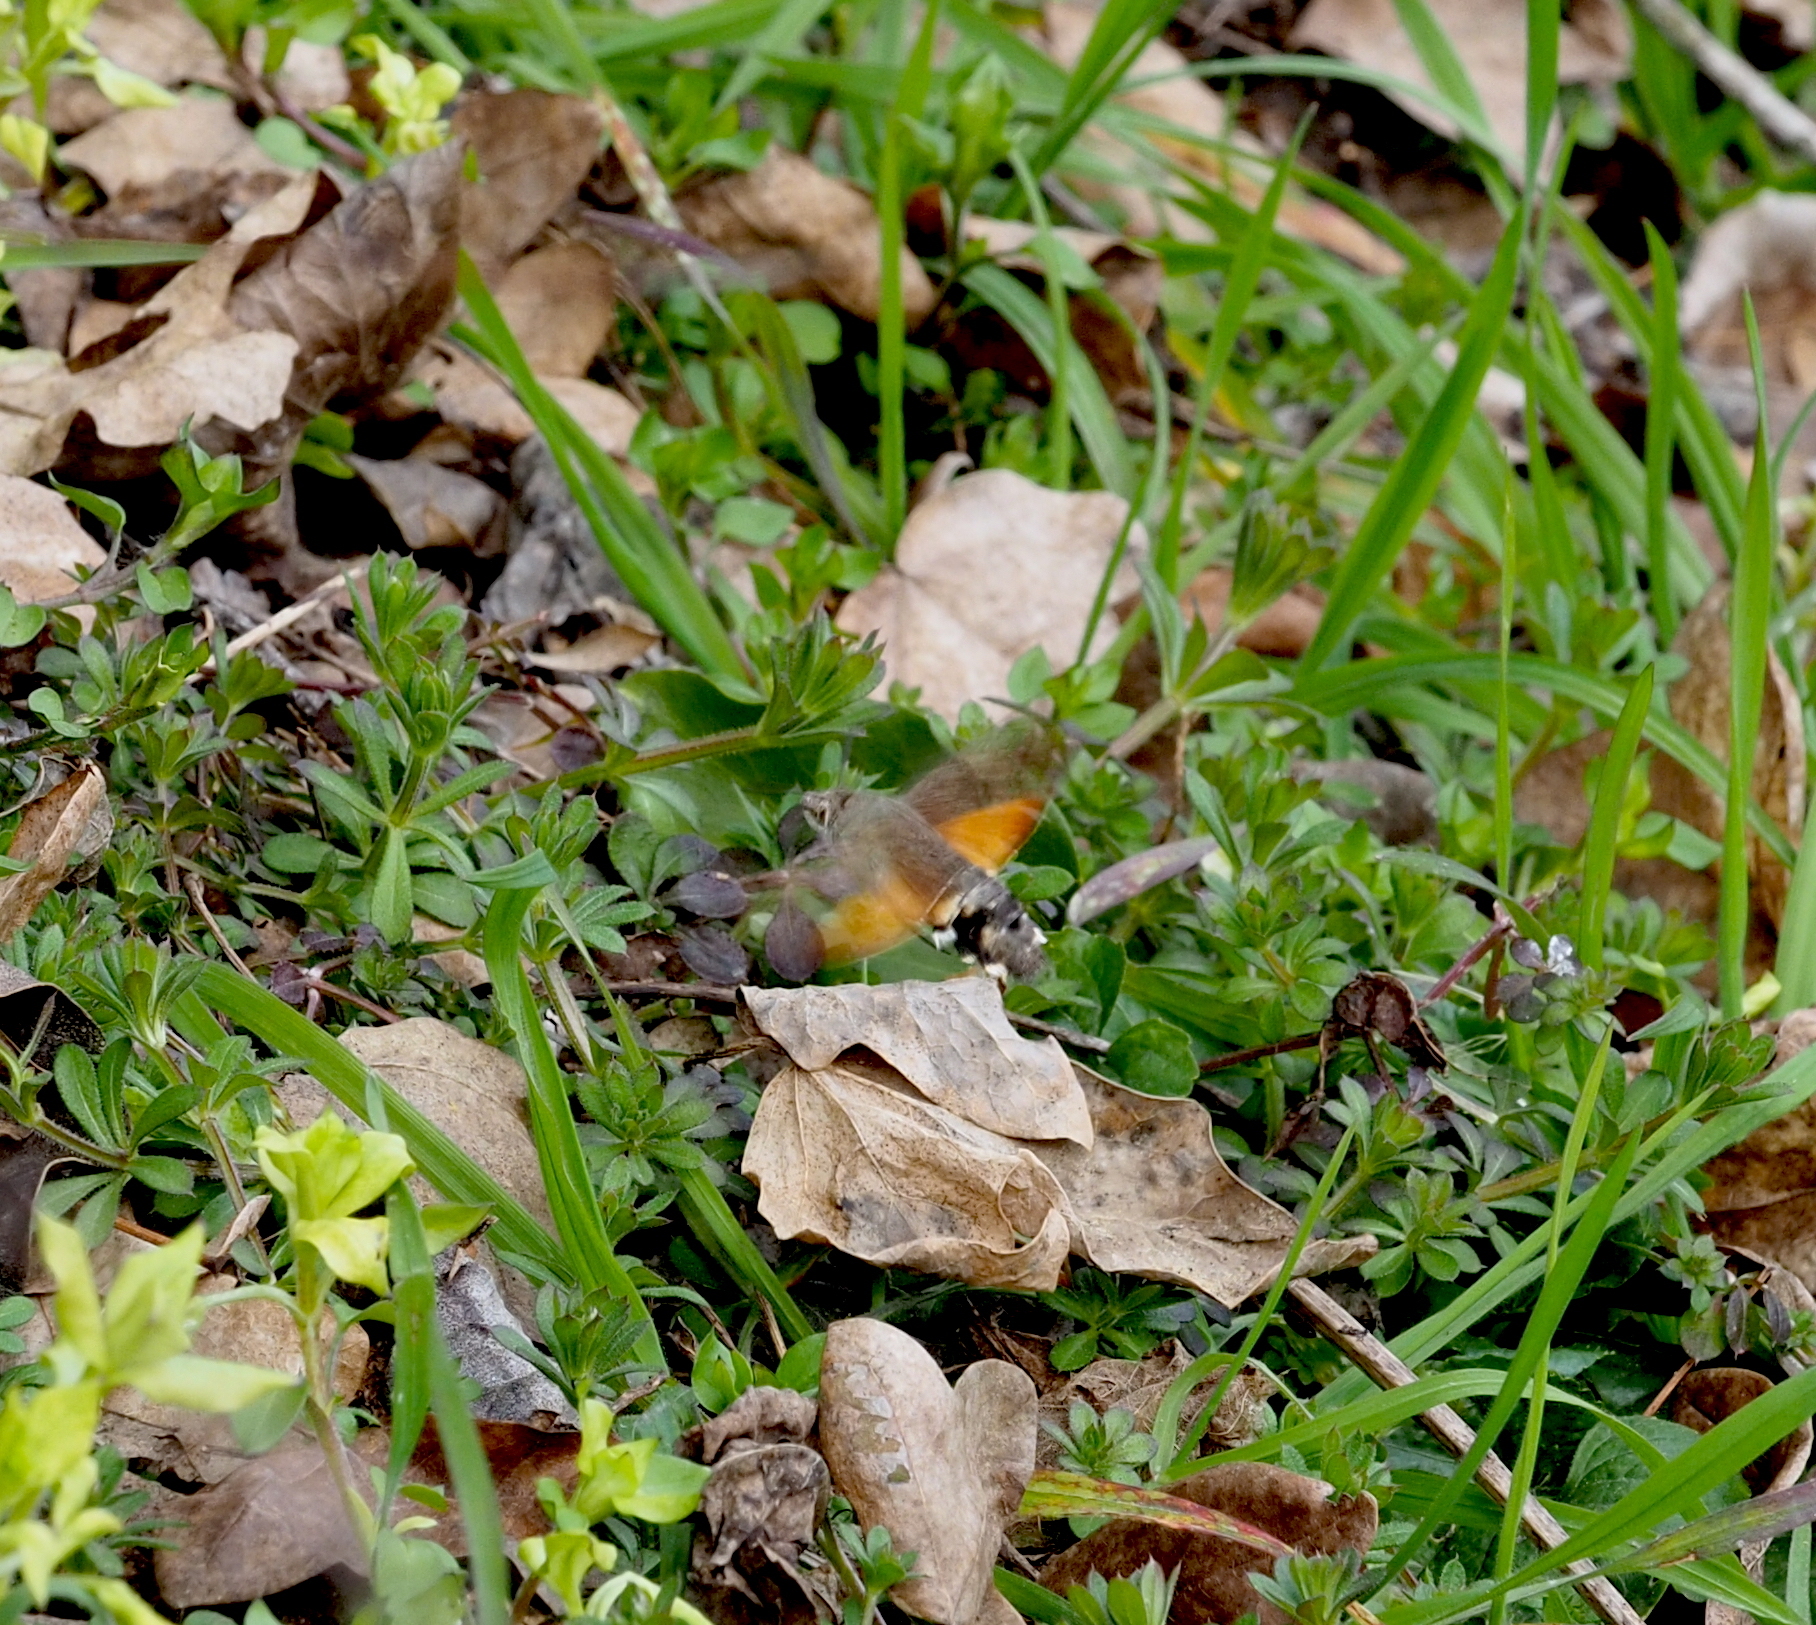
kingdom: Animalia
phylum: Arthropoda
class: Insecta
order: Lepidoptera
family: Sphingidae
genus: Macroglossum
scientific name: Macroglossum stellatarum
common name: Humming-bird hawk-moth
